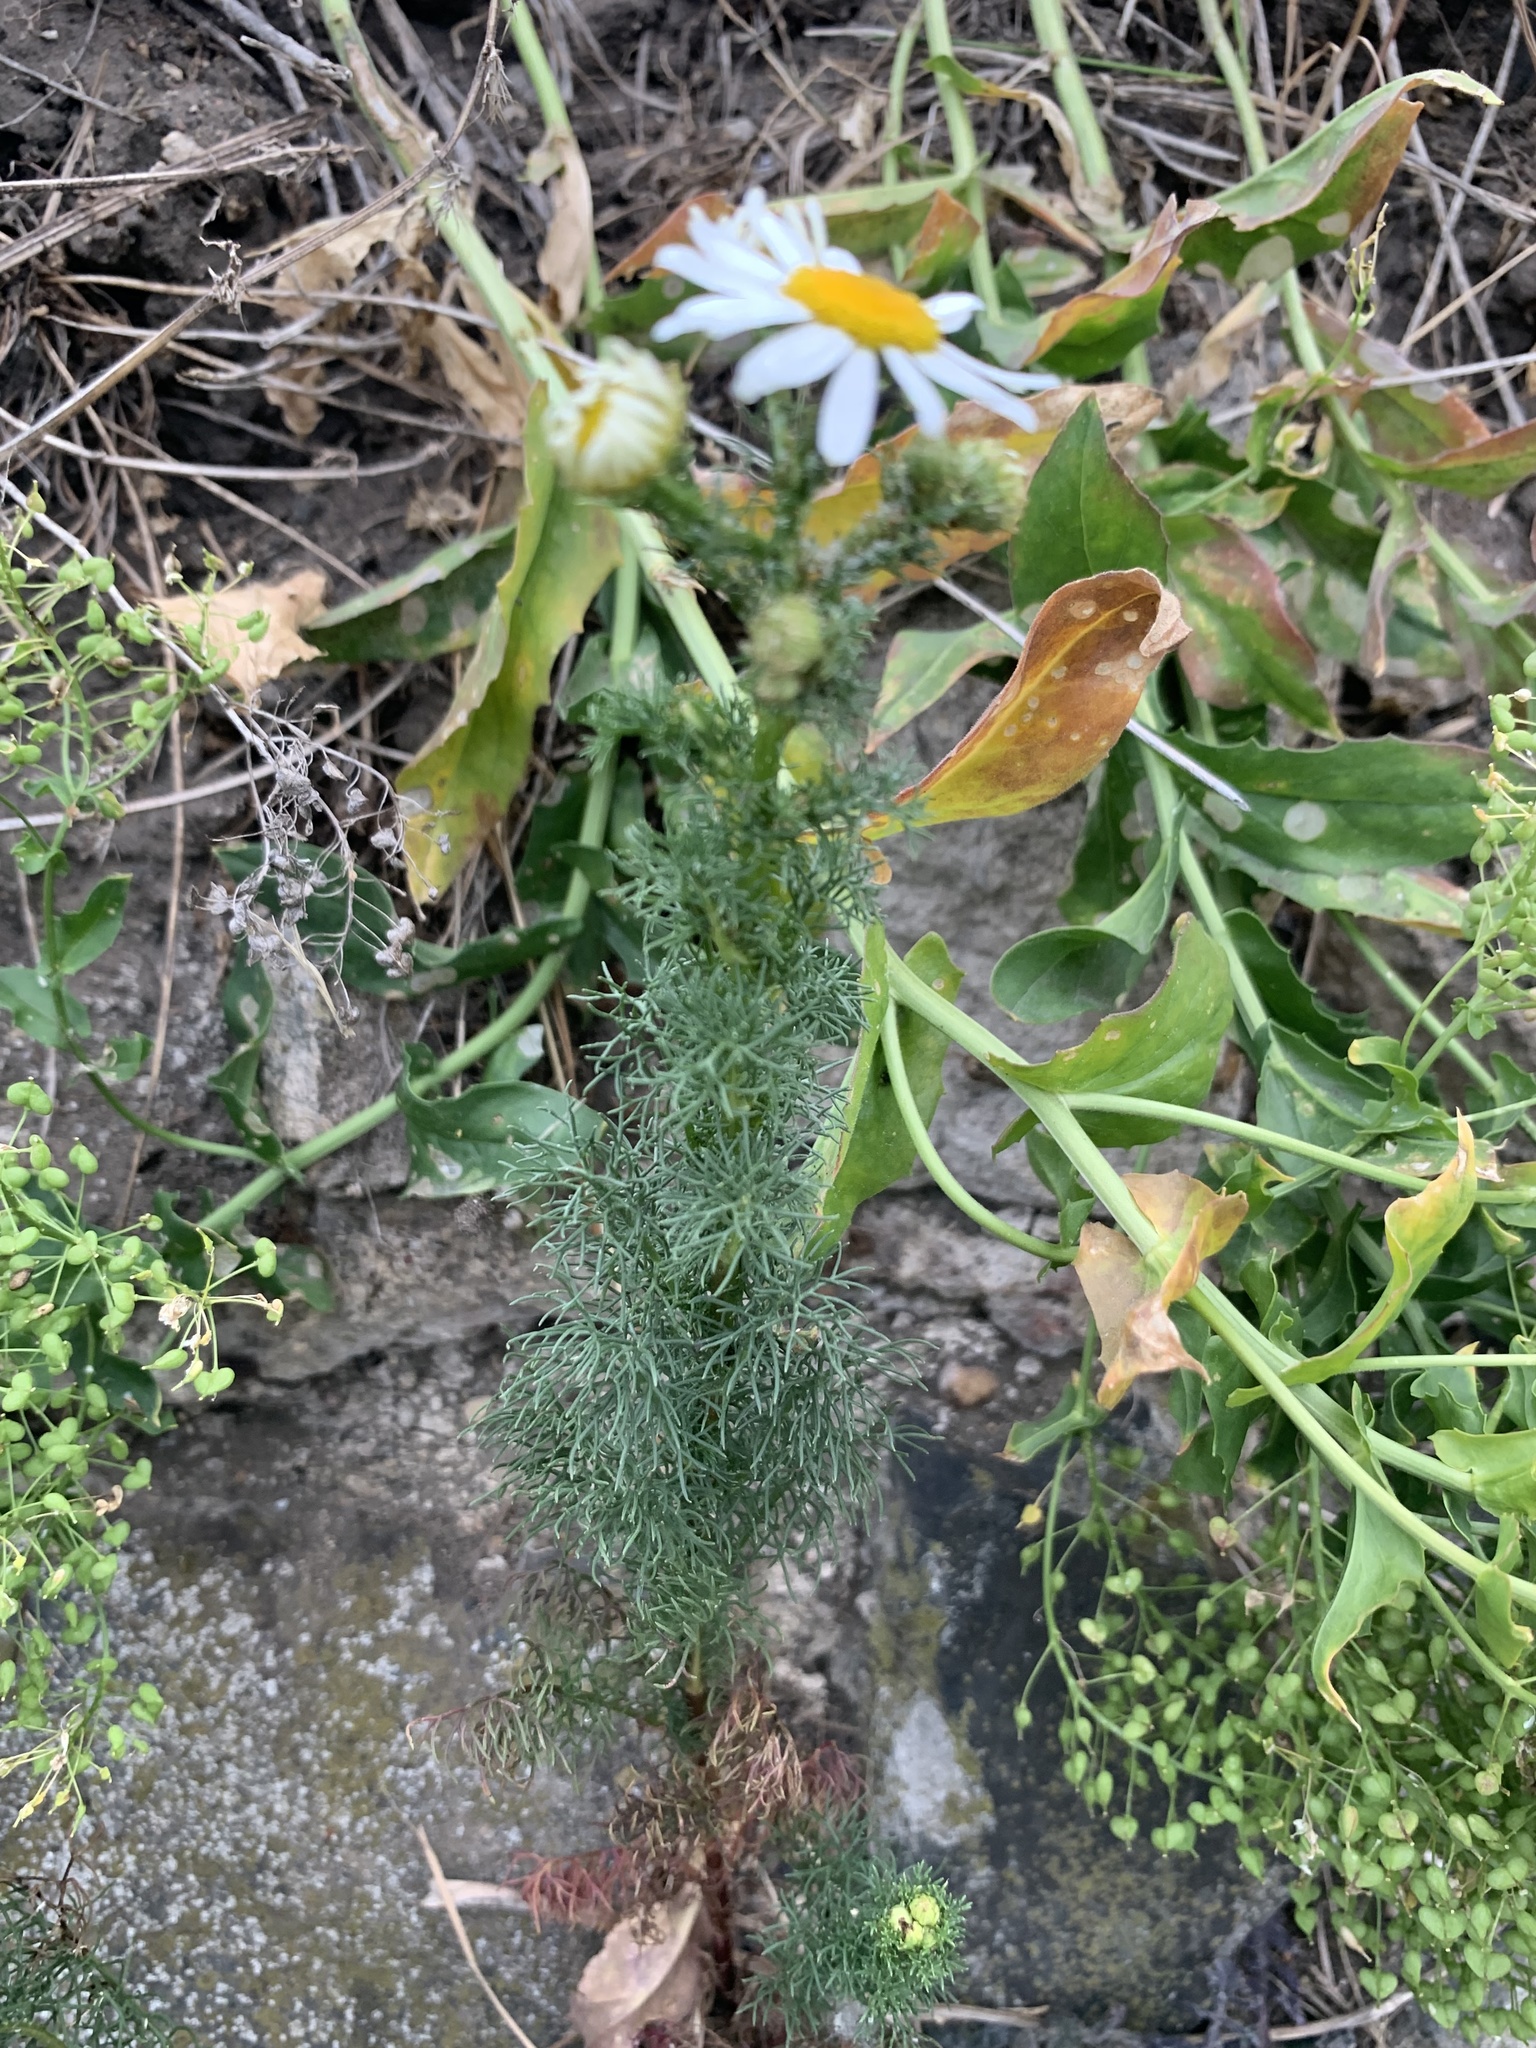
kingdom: Plantae
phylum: Tracheophyta
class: Magnoliopsida
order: Asterales
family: Asteraceae
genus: Tripleurospermum
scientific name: Tripleurospermum inodorum
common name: Scentless mayweed
